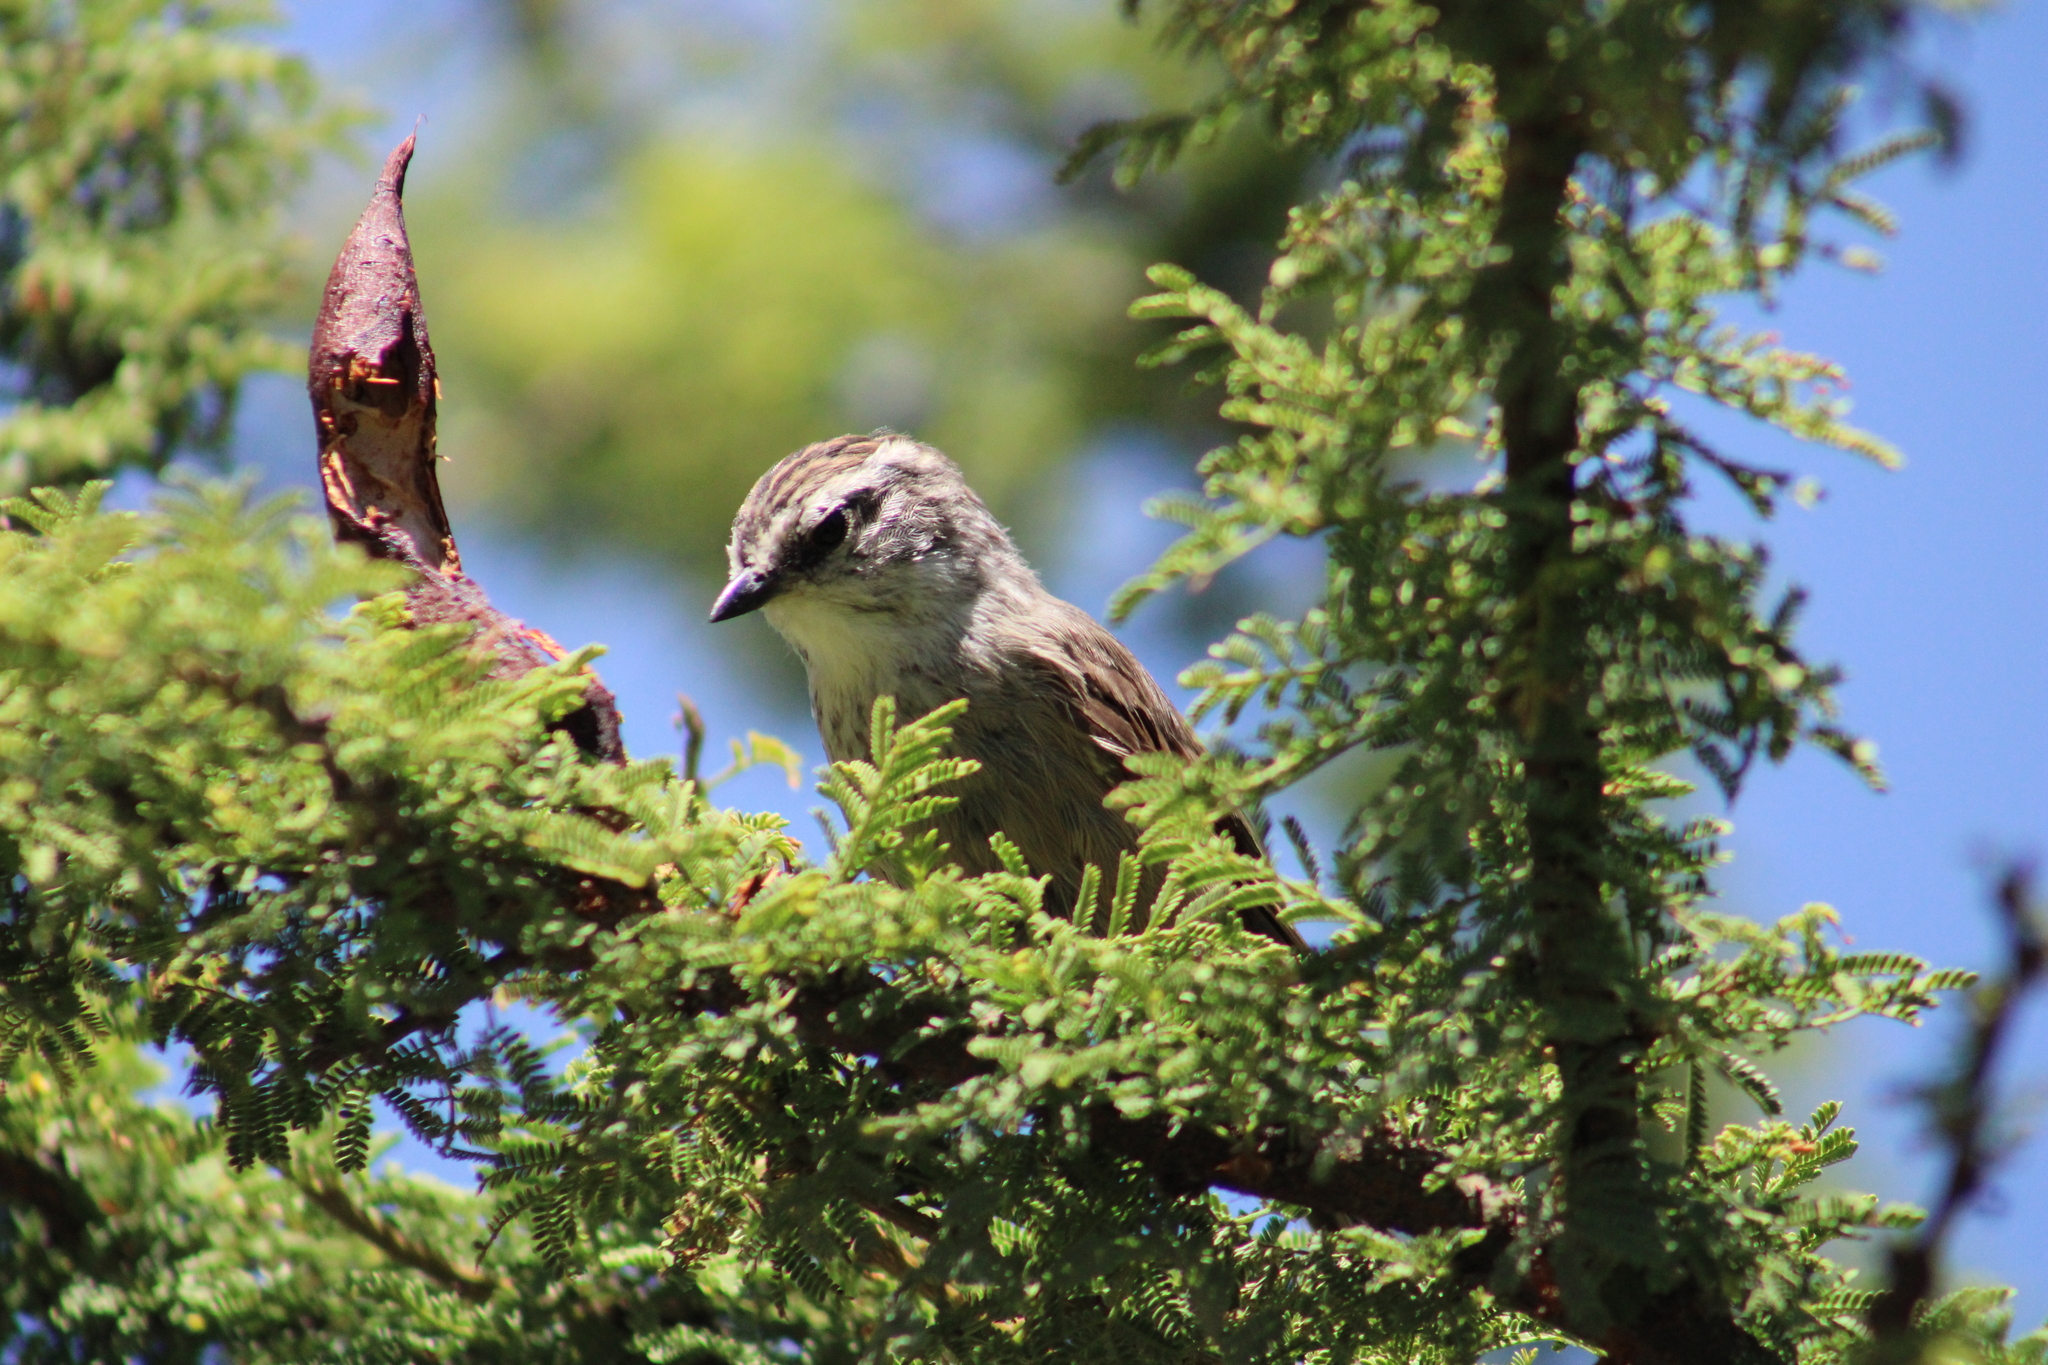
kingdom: Animalia
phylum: Chordata
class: Aves
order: Passeriformes
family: Furnariidae
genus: Leptasthenura
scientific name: Leptasthenura aegithaloides
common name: Plain-mantled tit-spinetail
